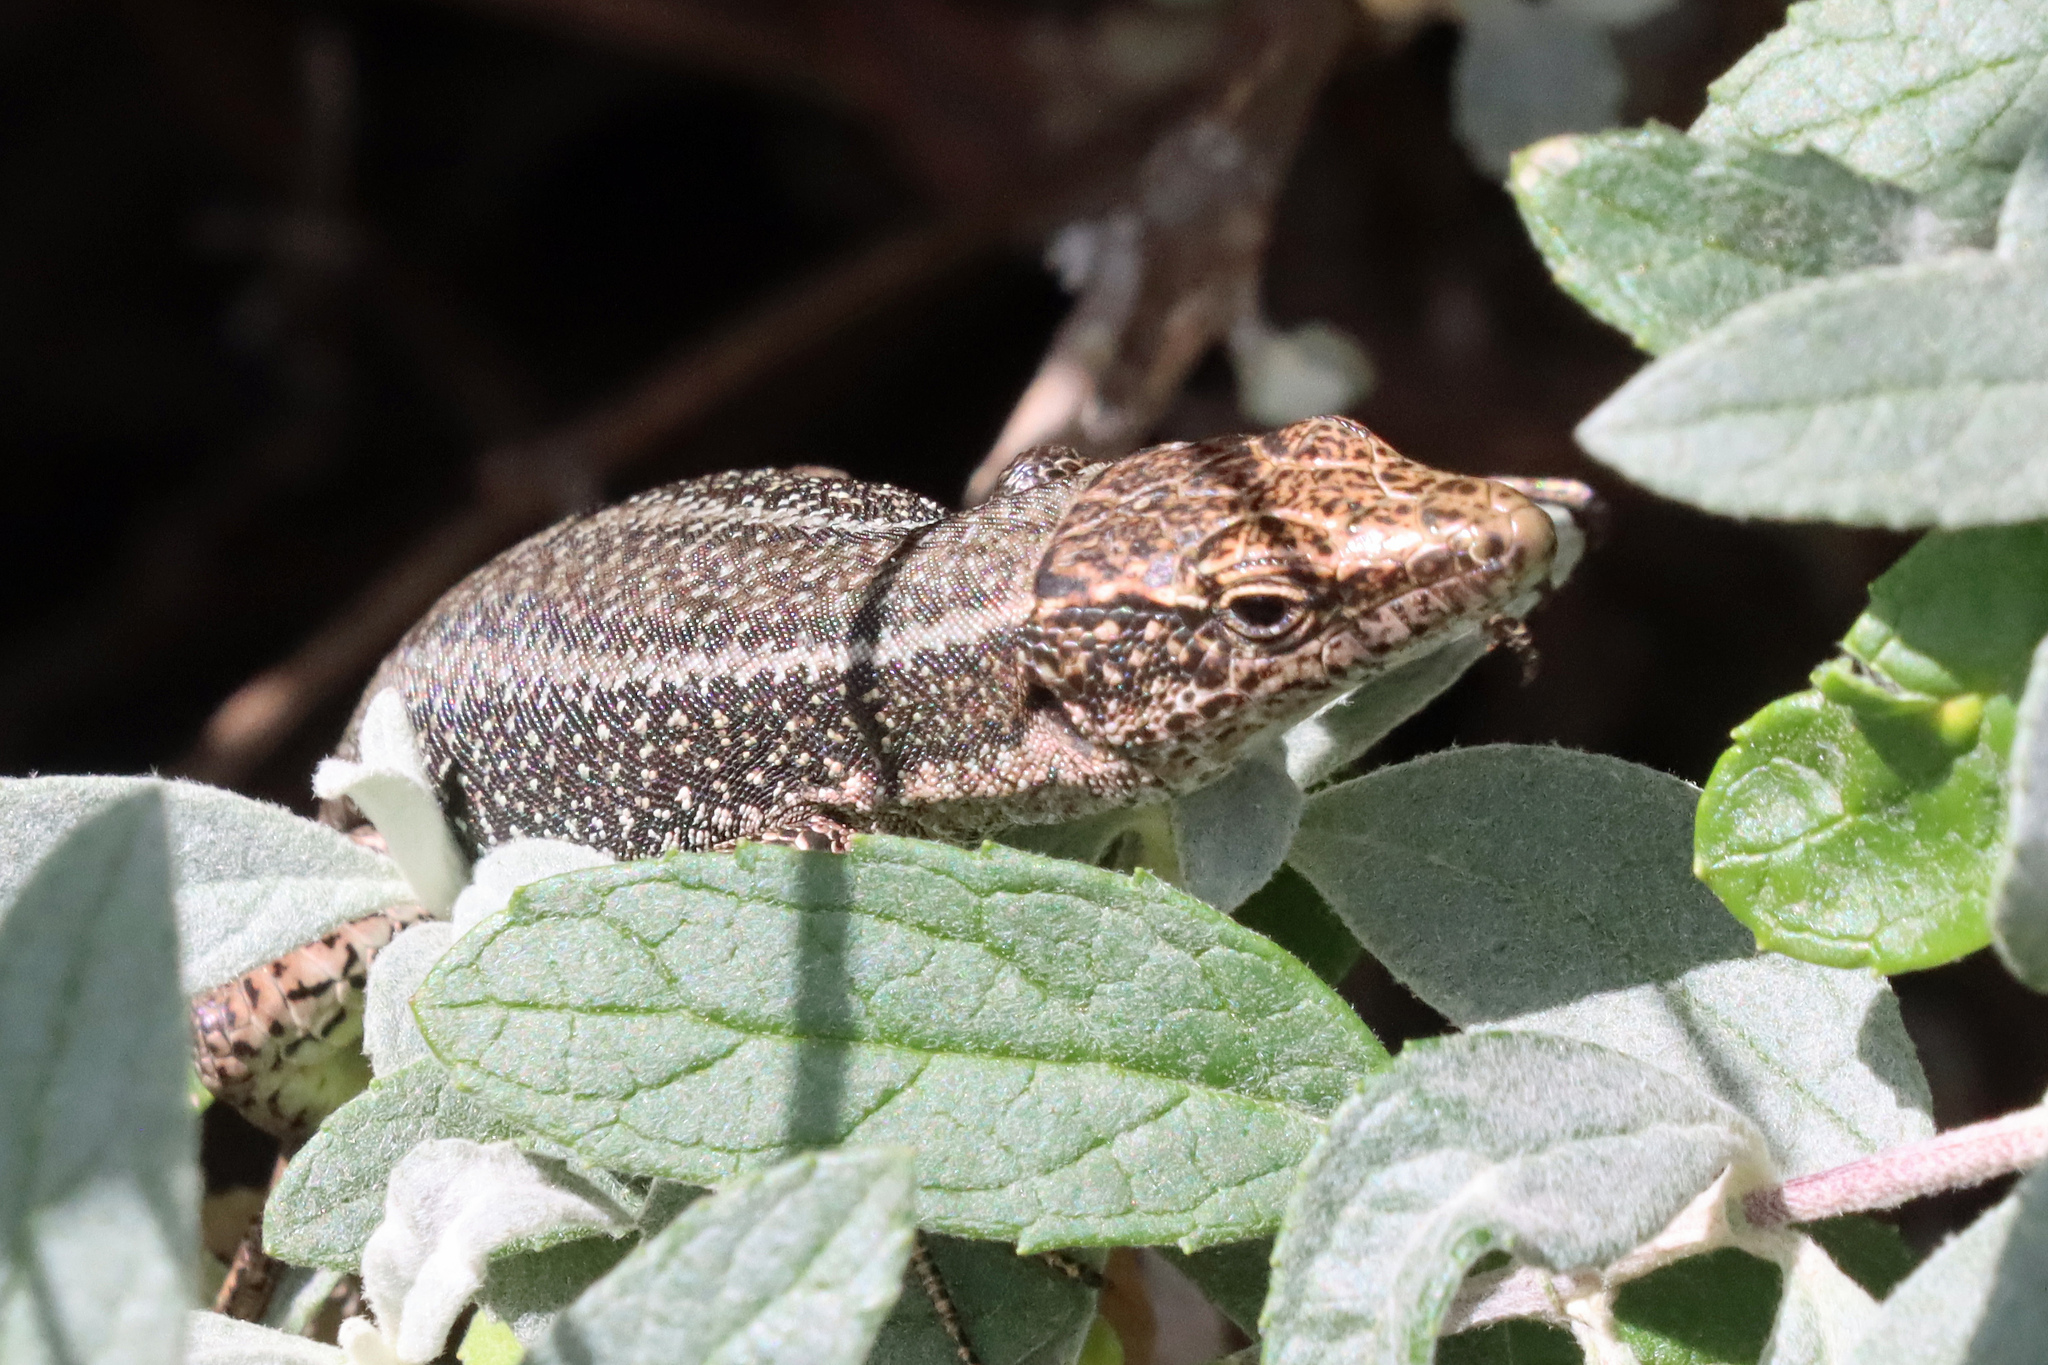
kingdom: Animalia
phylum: Chordata
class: Squamata
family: Lacertidae
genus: Teira
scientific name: Teira dugesii
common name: Madeira lizard
